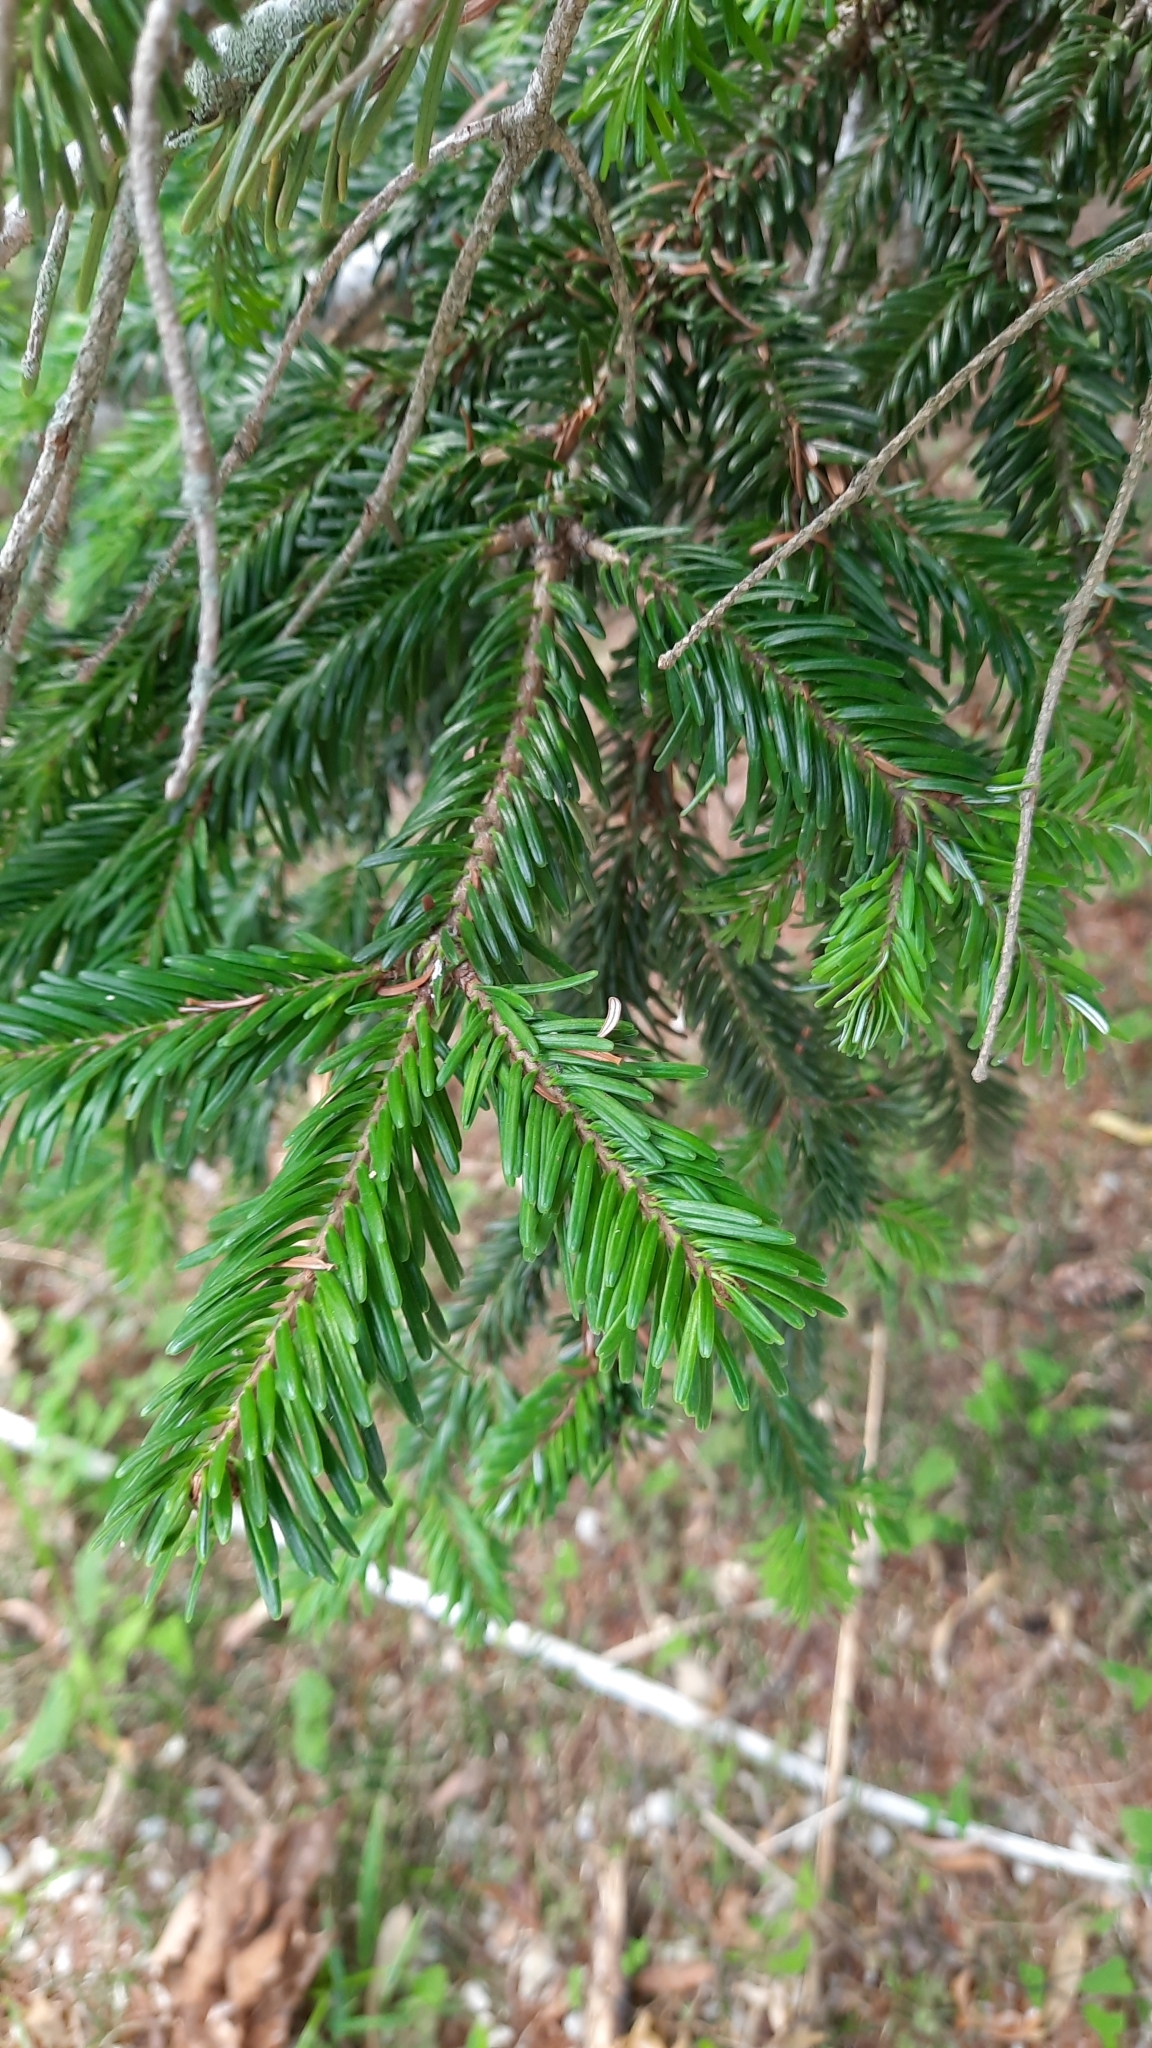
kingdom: Plantae
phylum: Tracheophyta
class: Pinopsida
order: Pinales
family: Pinaceae
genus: Abies
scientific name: Abies nordmanniana
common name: Caucasian fir
